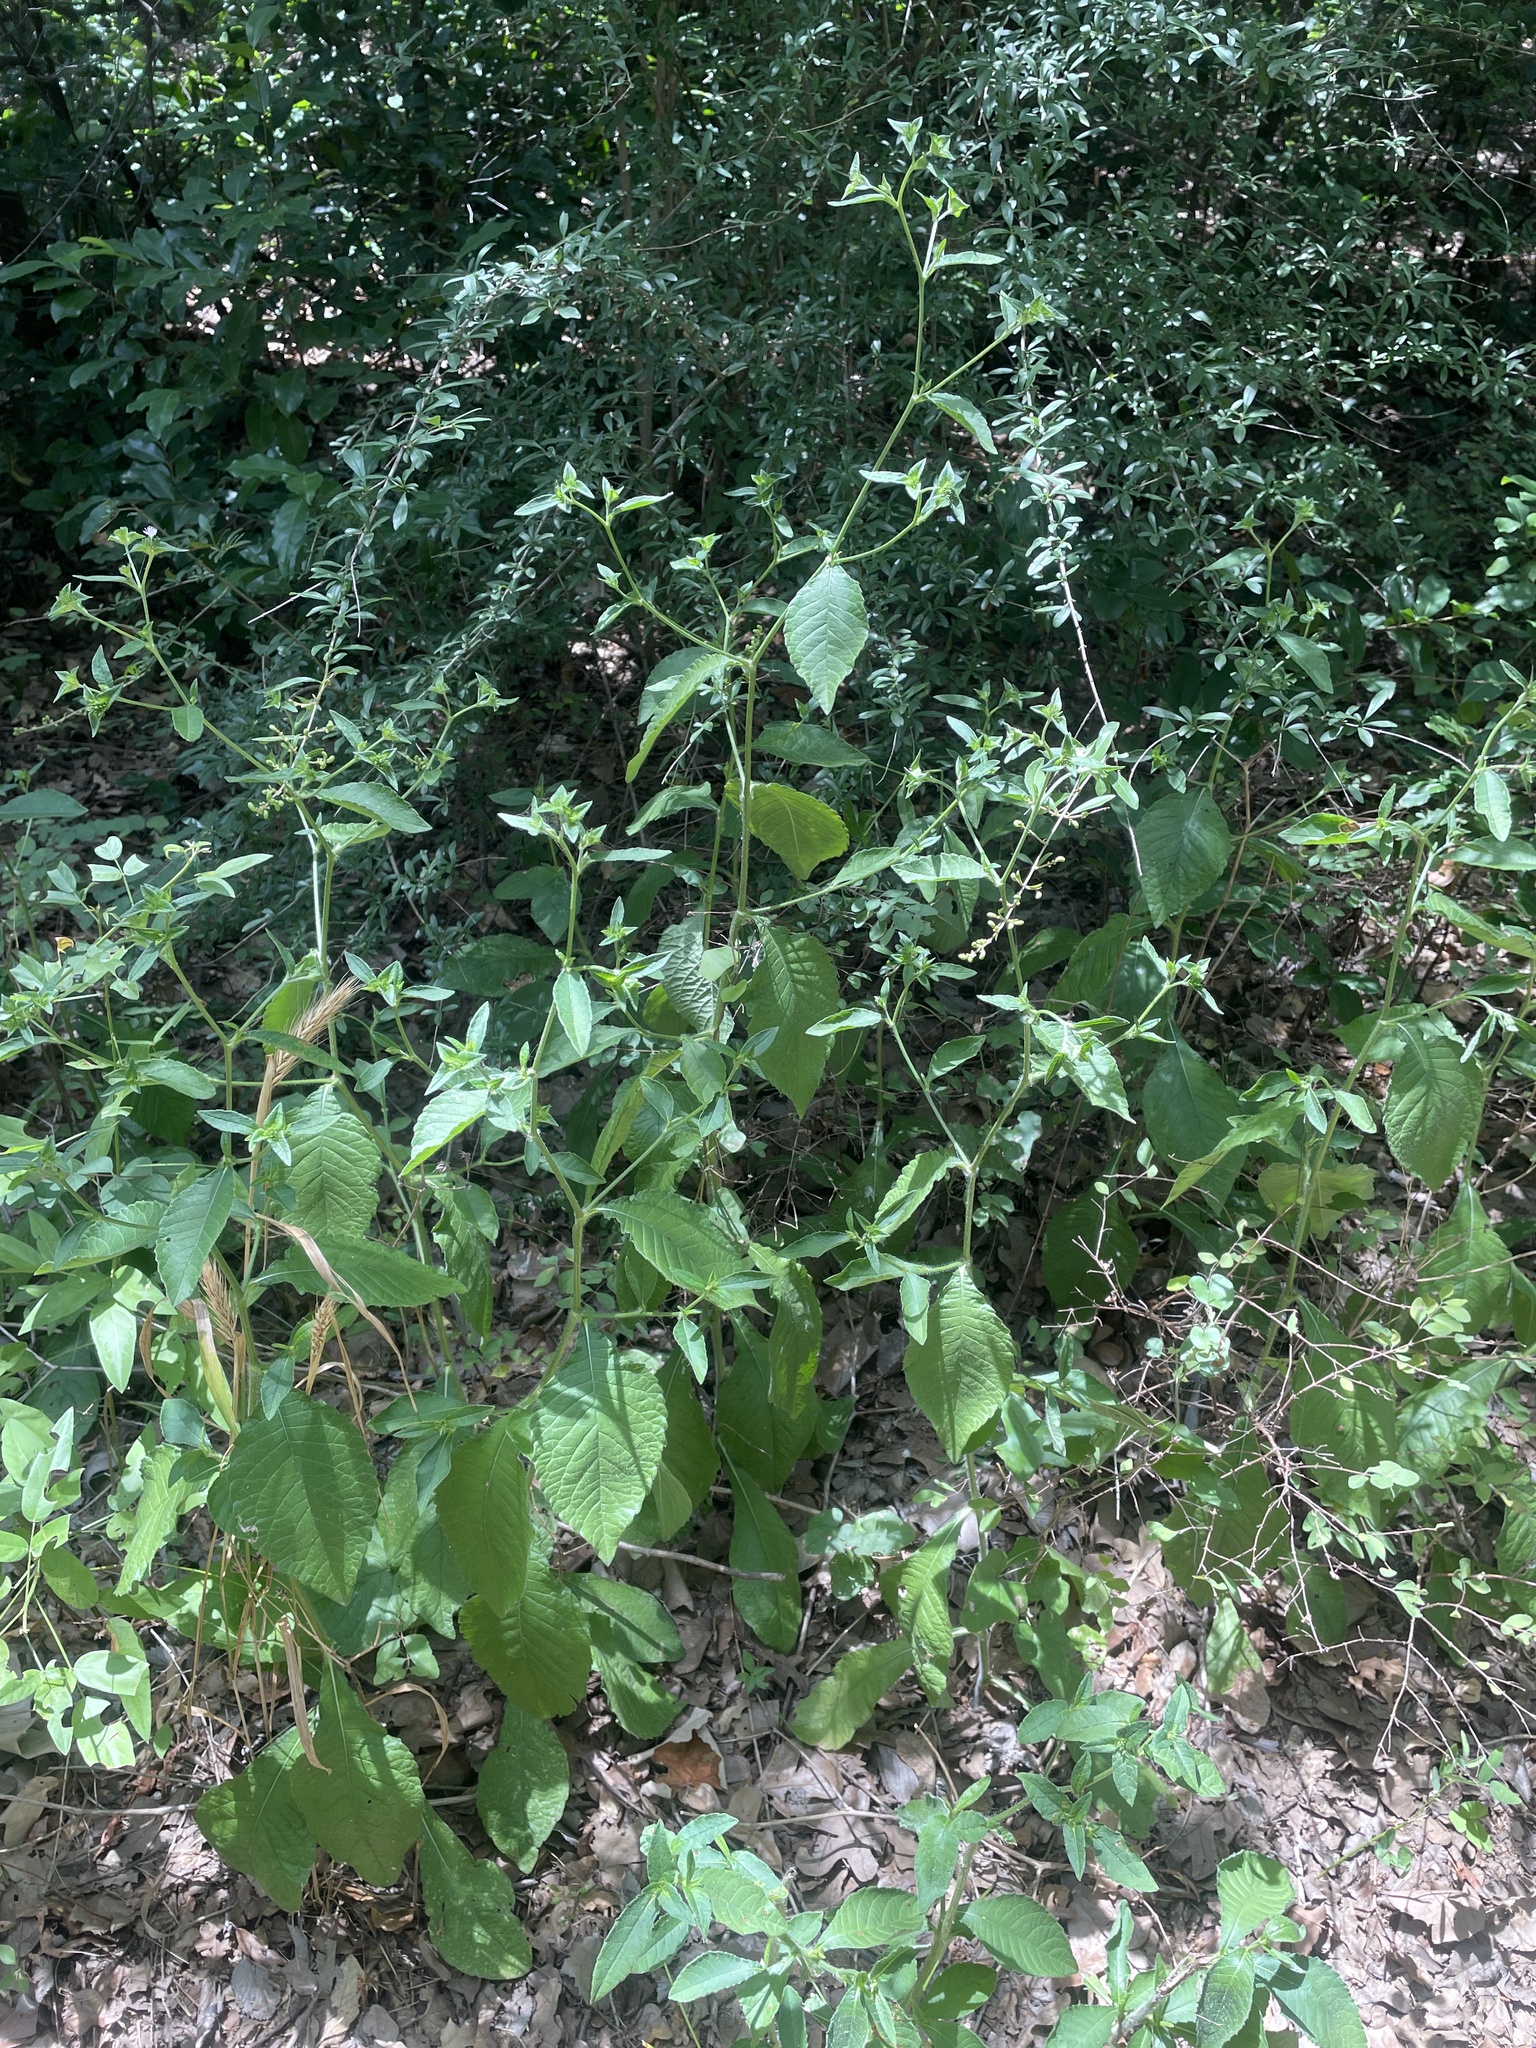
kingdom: Plantae
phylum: Tracheophyta
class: Magnoliopsida
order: Asterales
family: Asteraceae
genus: Elephantopus
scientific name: Elephantopus carolinianus
